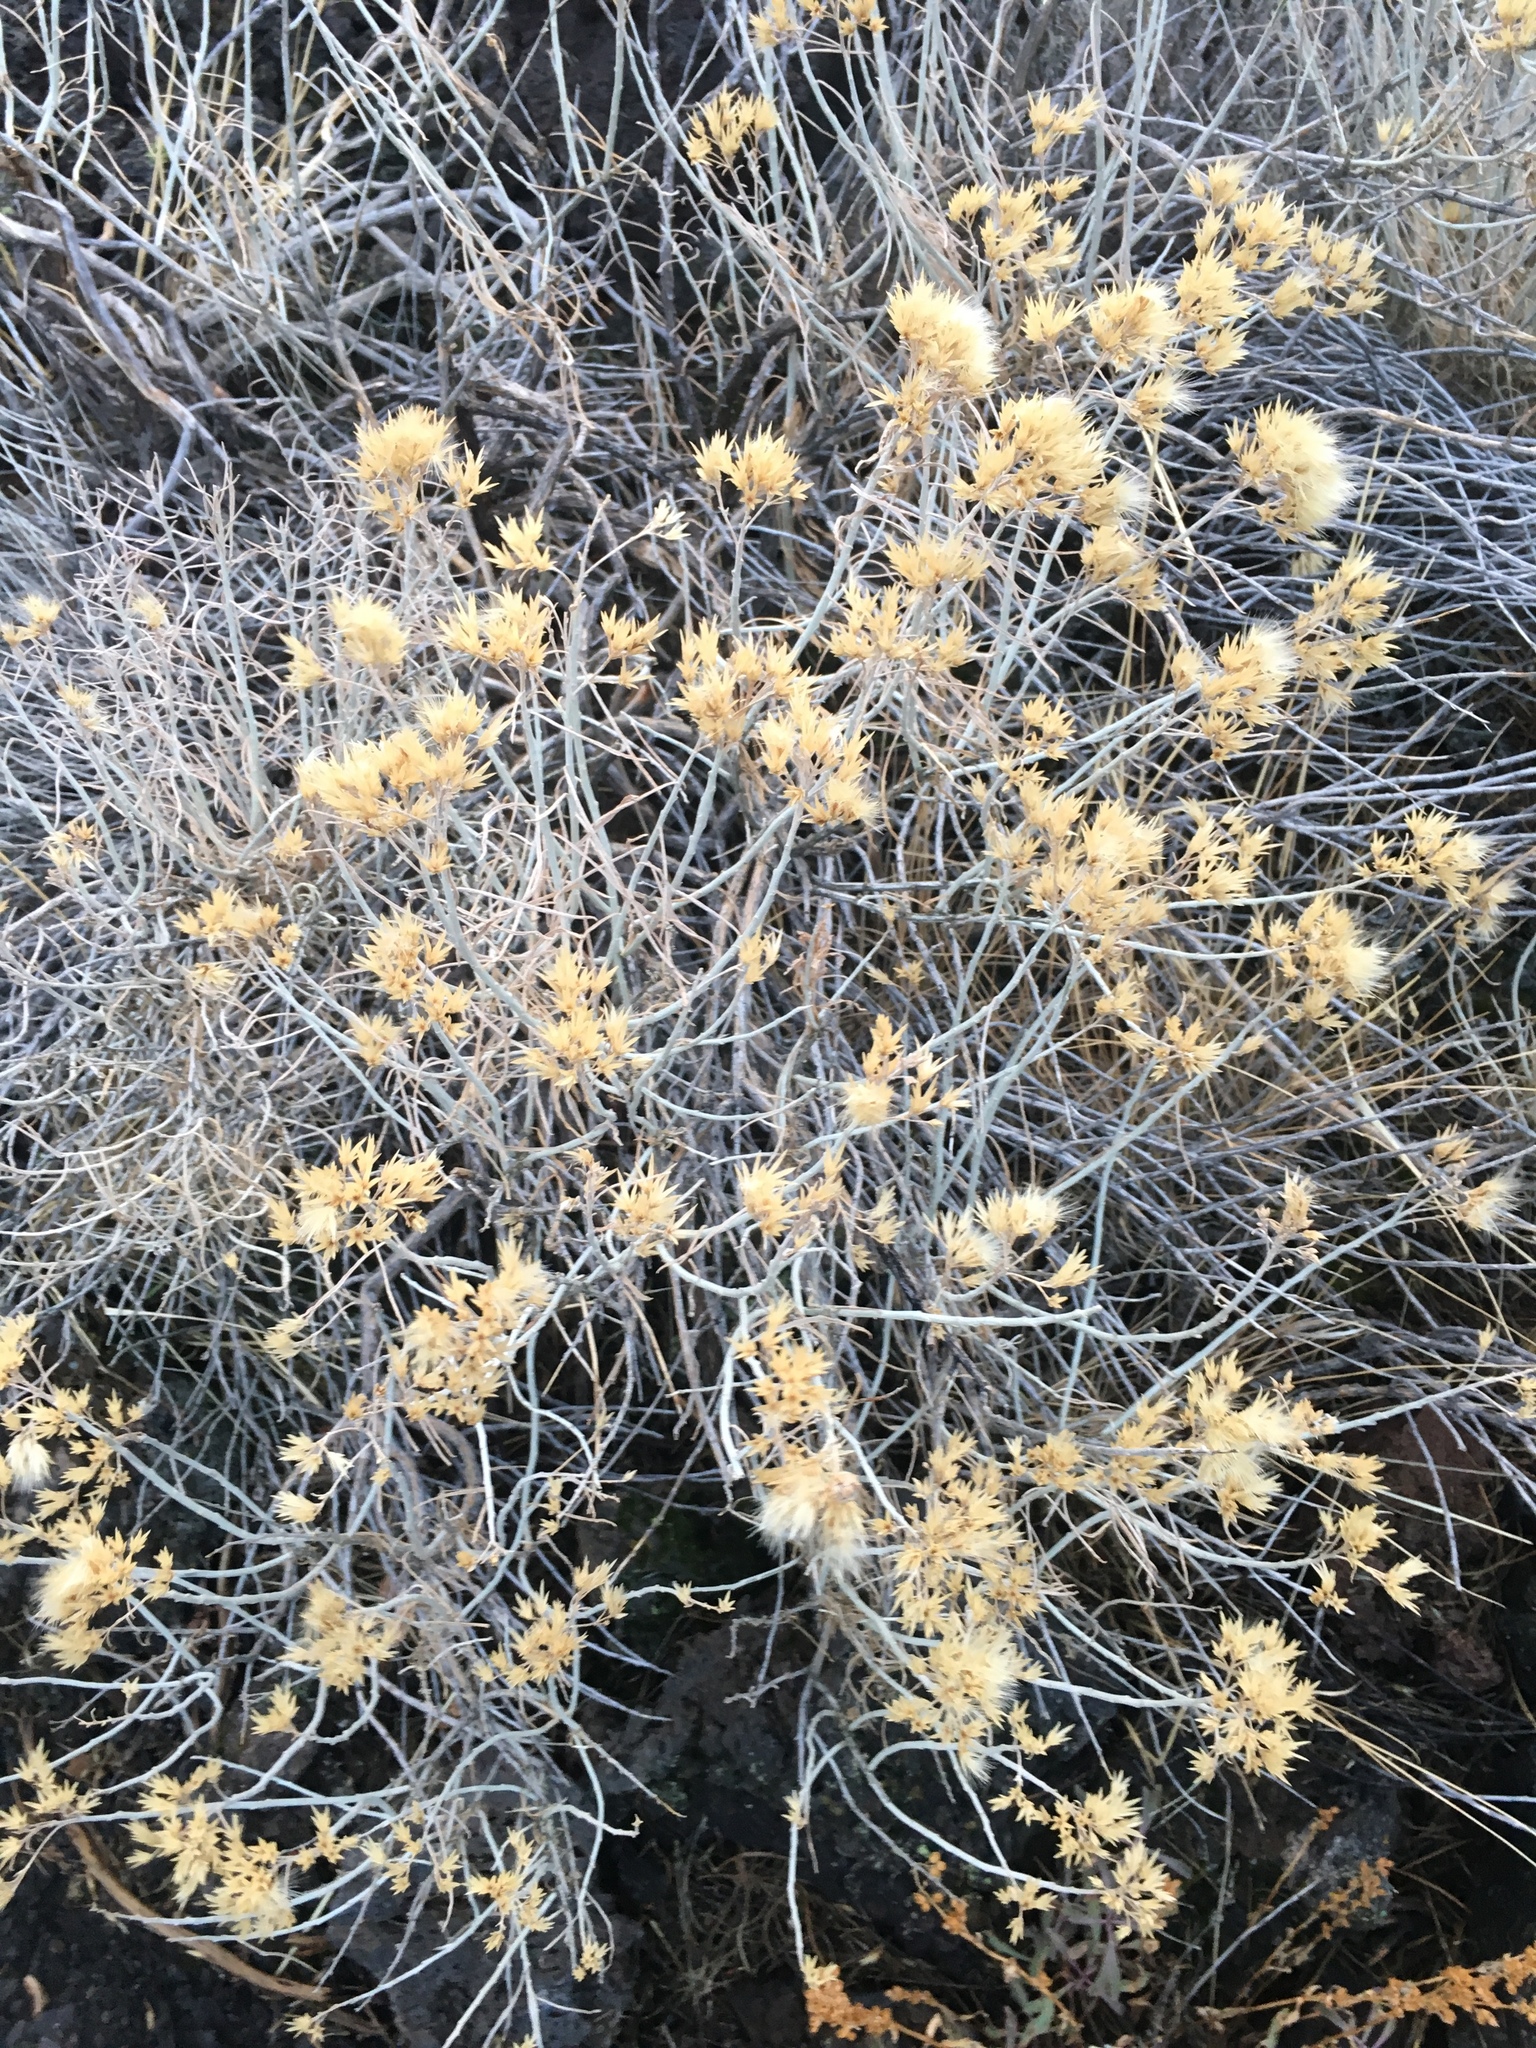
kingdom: Plantae
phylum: Tracheophyta
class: Magnoliopsida
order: Asterales
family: Asteraceae
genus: Ericameria
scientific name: Ericameria nauseosa
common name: Rubber rabbitbrush
